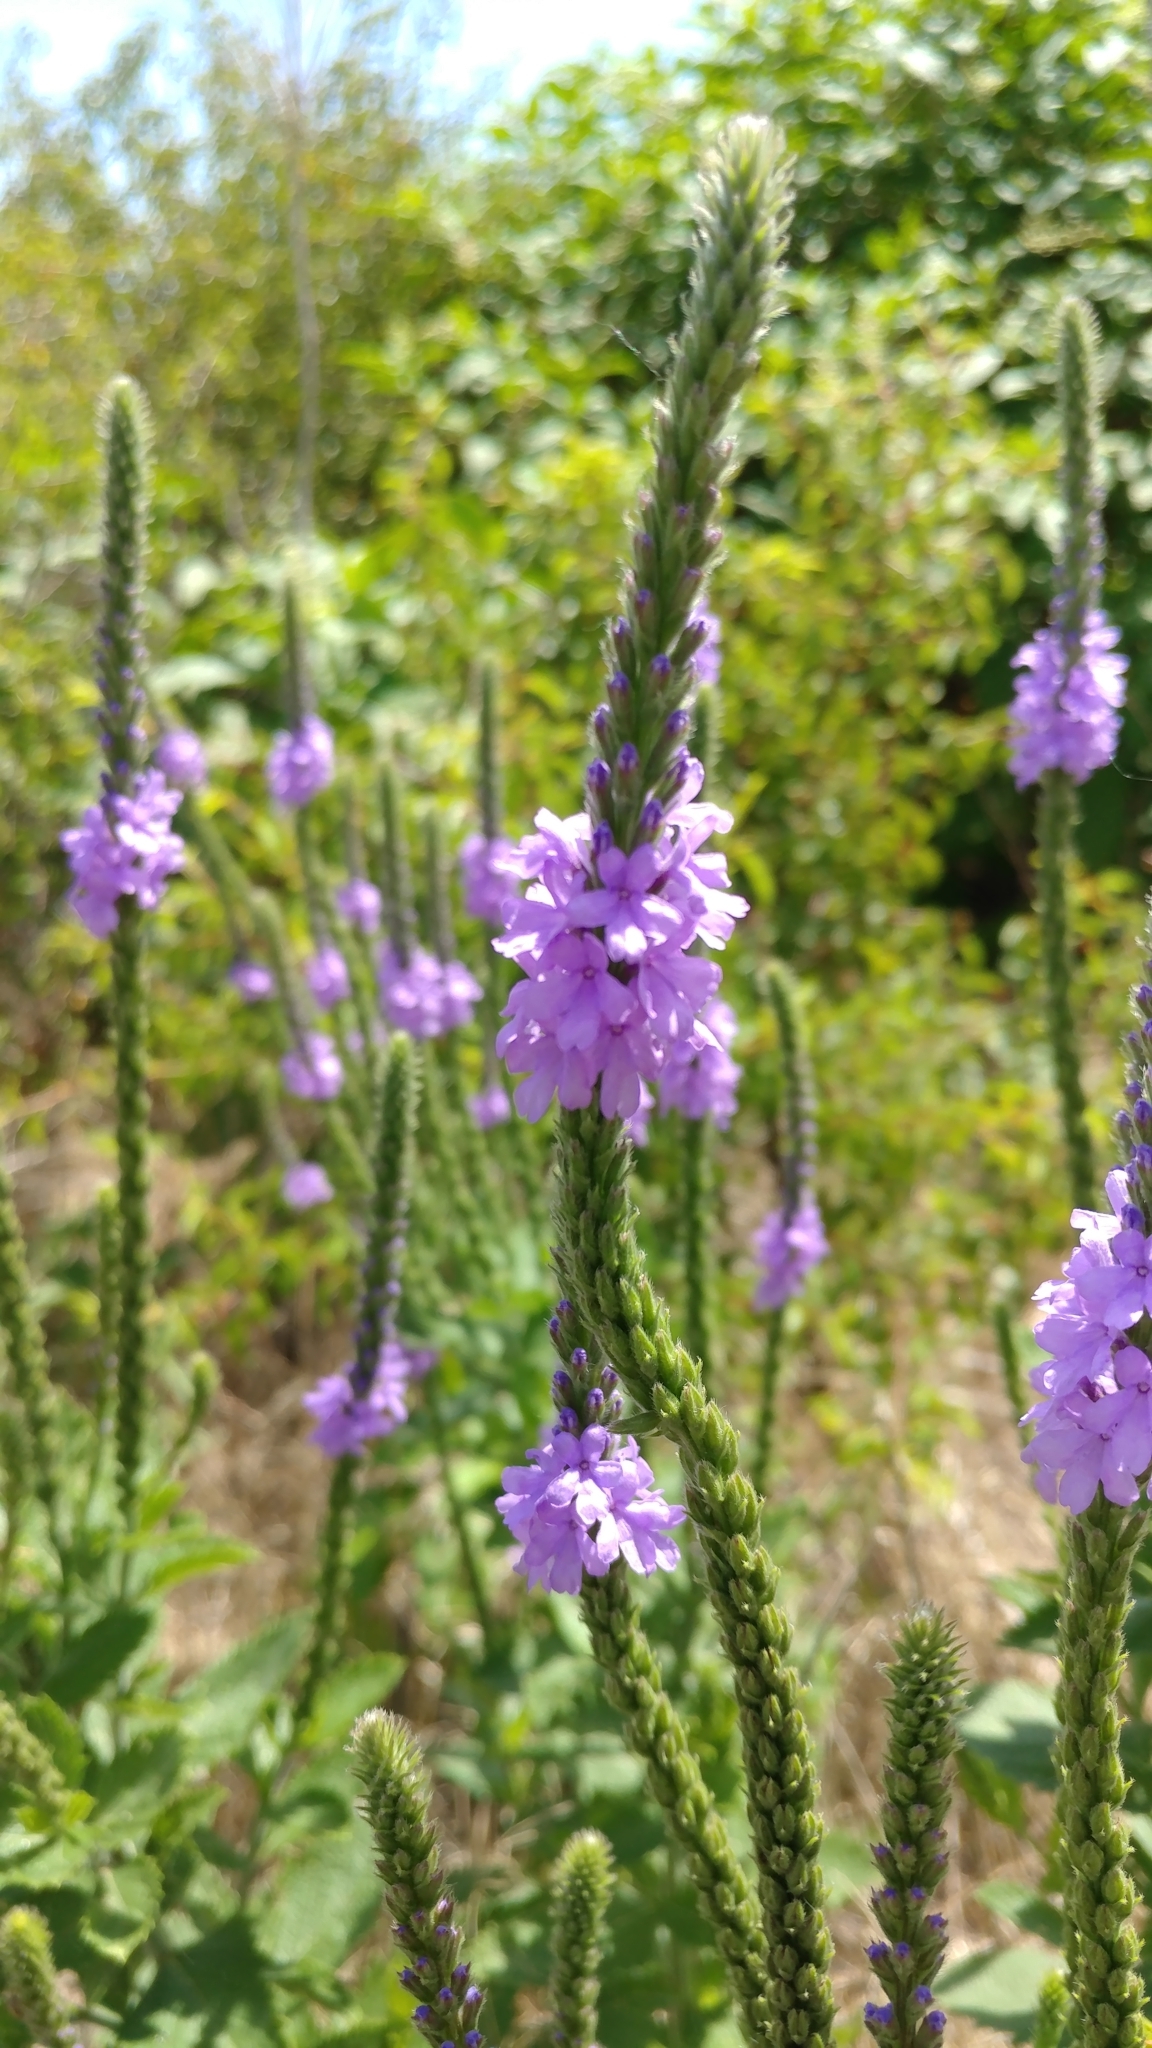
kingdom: Plantae
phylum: Tracheophyta
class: Magnoliopsida
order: Lamiales
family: Verbenaceae
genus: Verbena
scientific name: Verbena stricta
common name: Hoary vervain
